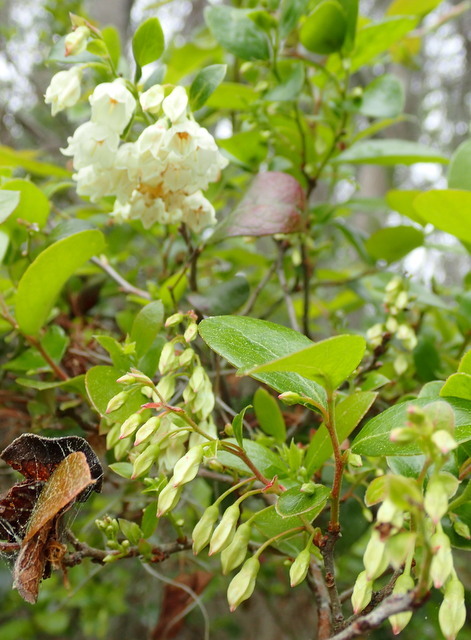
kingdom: Plantae
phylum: Tracheophyta
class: Magnoliopsida
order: Ericales
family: Ericaceae
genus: Vaccinium
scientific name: Vaccinium arboreum
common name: Farkleberry
